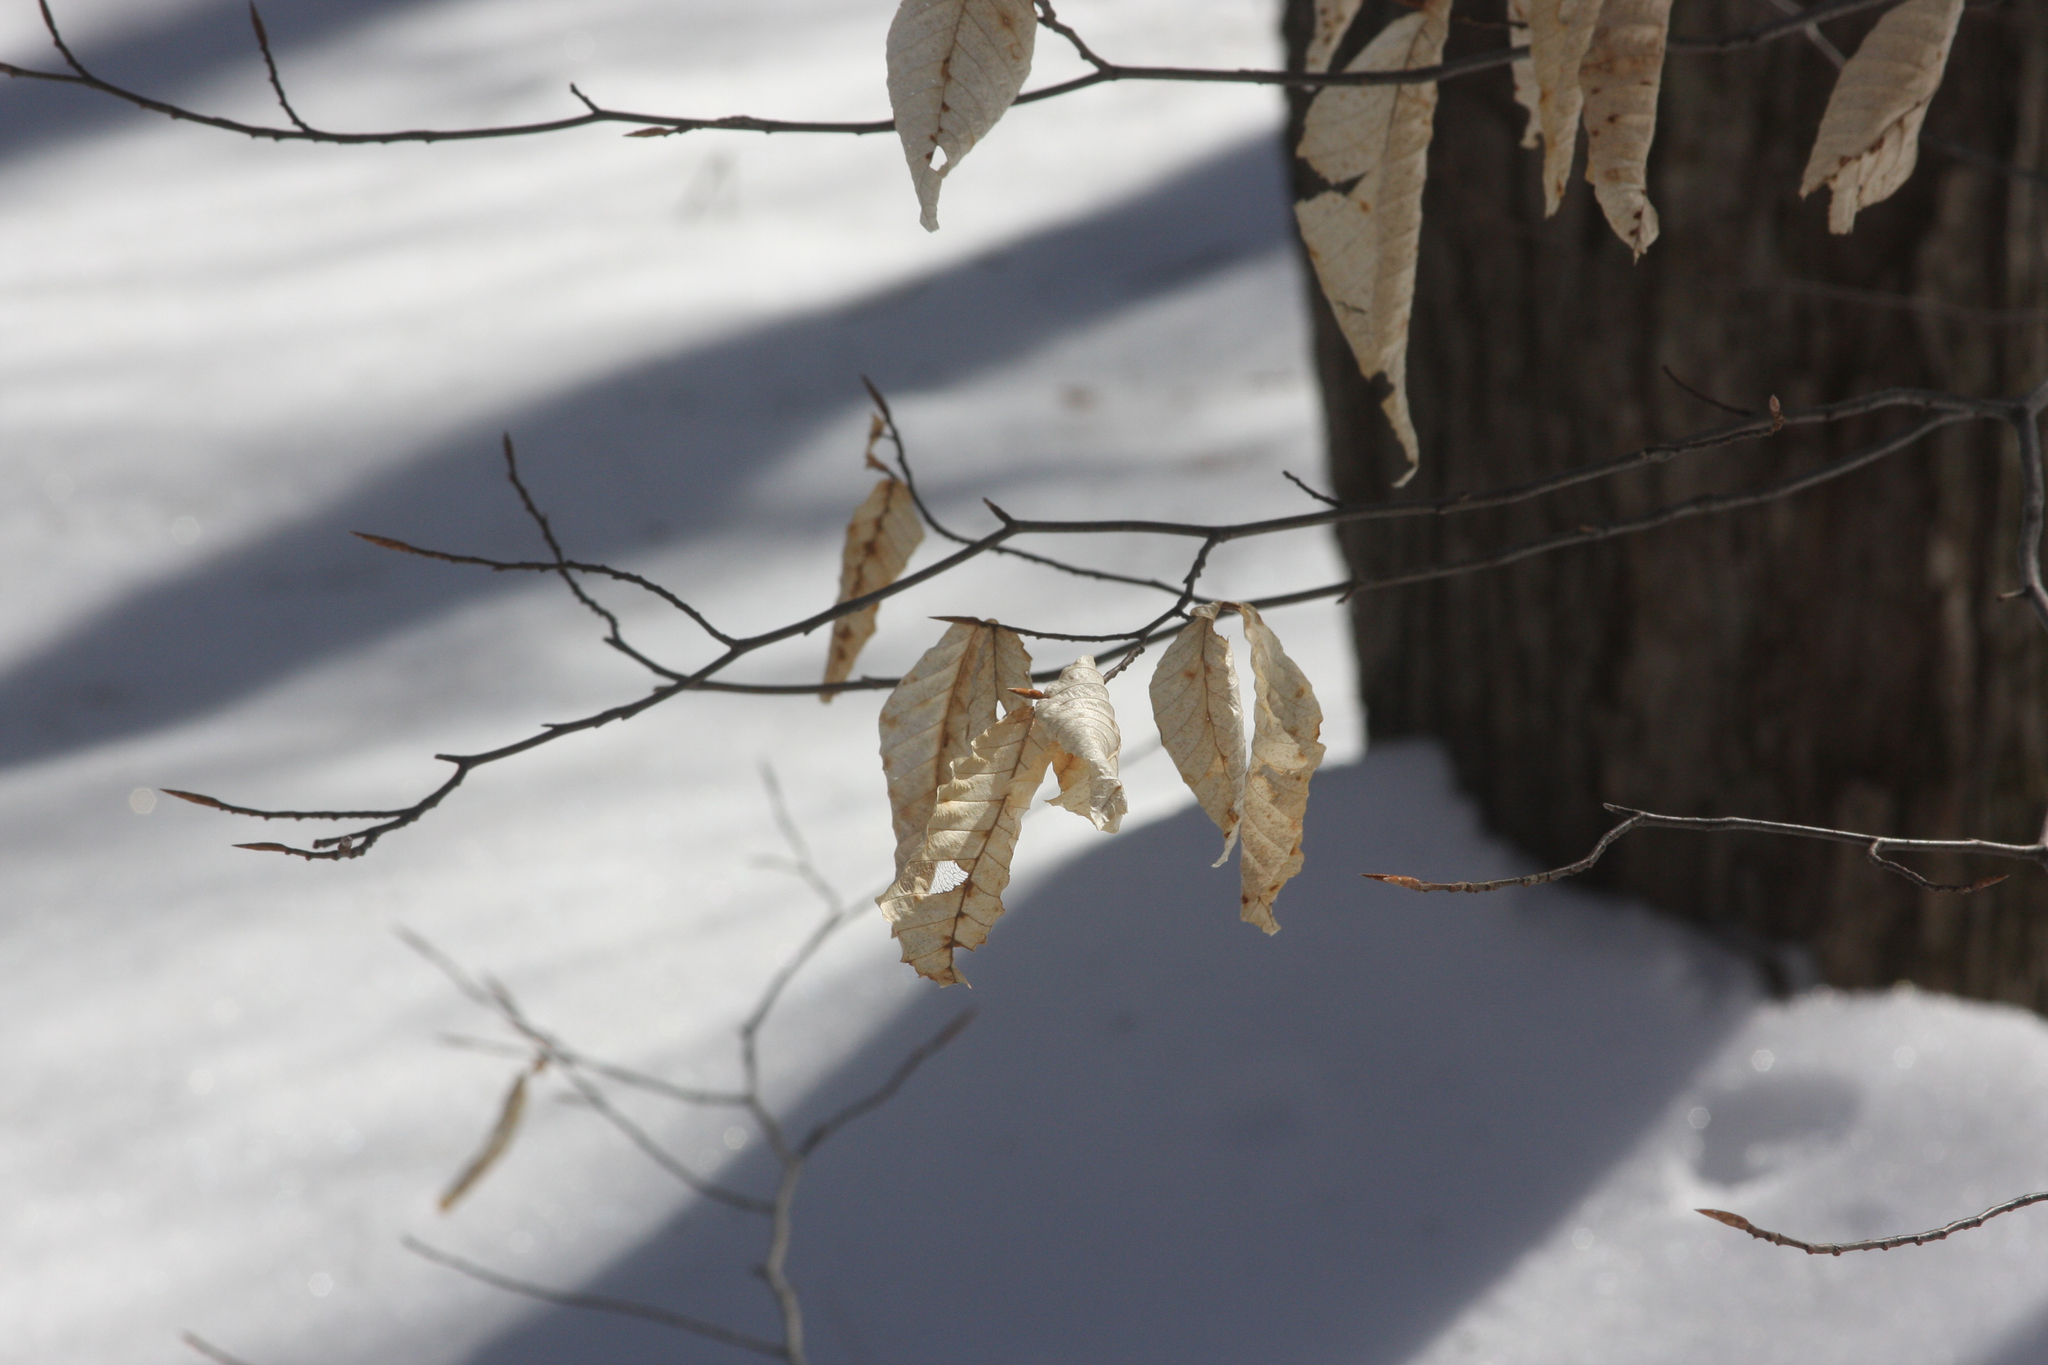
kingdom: Plantae
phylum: Tracheophyta
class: Magnoliopsida
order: Fagales
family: Fagaceae
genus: Fagus
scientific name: Fagus grandifolia
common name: American beech
